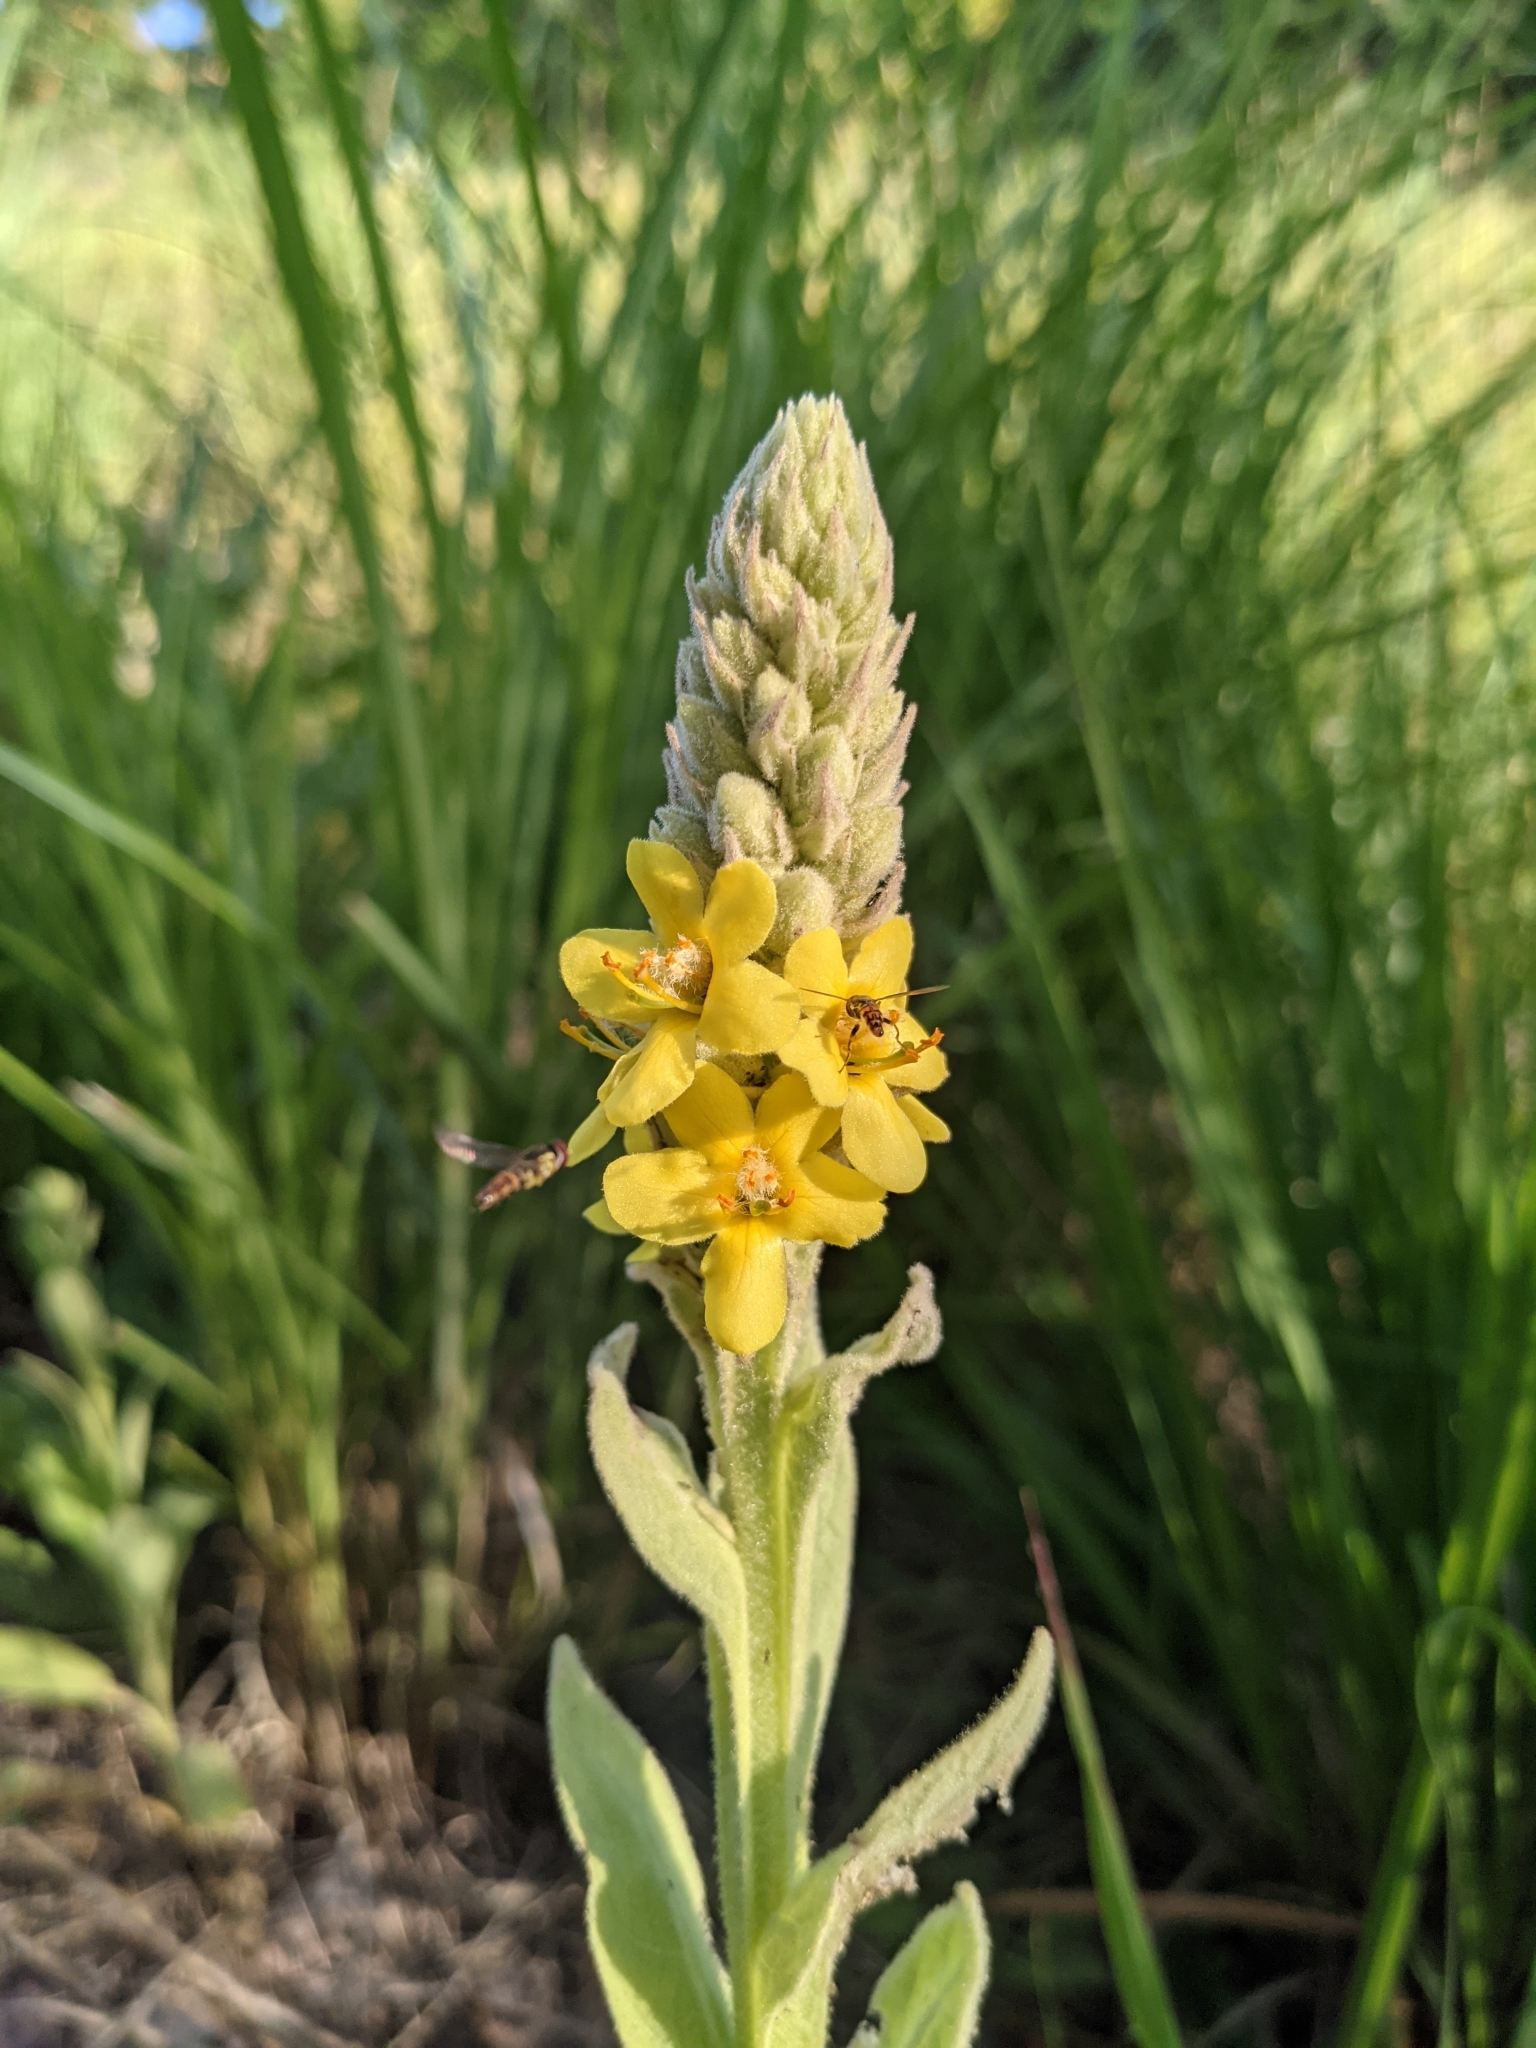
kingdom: Animalia
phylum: Arthropoda
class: Insecta
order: Diptera
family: Syrphidae
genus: Toxomerus
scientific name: Toxomerus geminatus
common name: Eastern calligrapher
